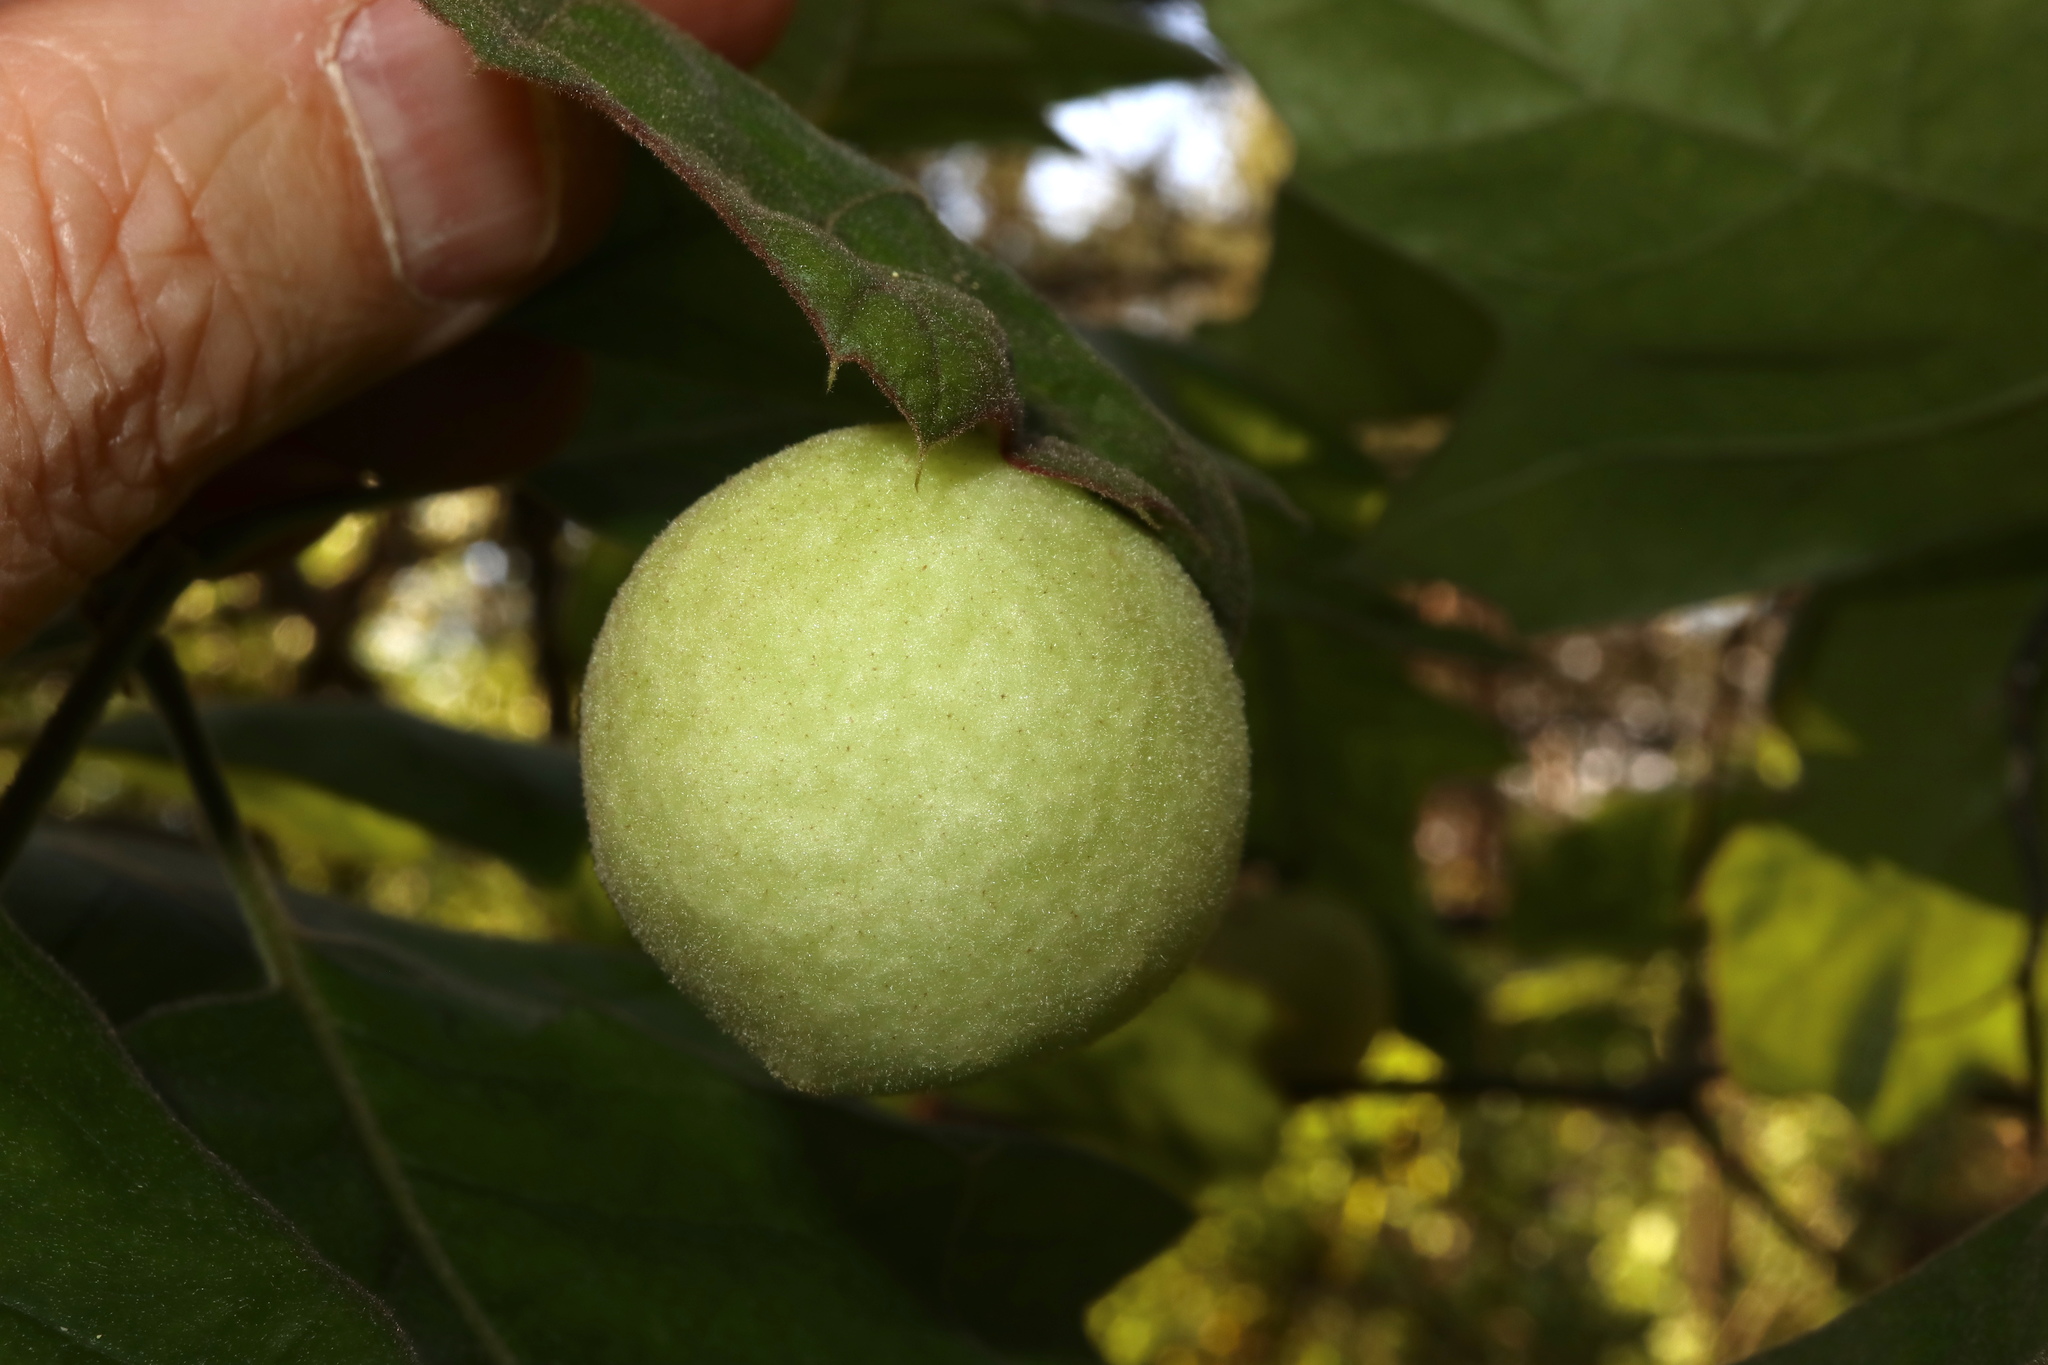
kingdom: Animalia
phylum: Arthropoda
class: Insecta
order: Hymenoptera
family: Cynipidae
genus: Amphibolips
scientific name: Amphibolips
